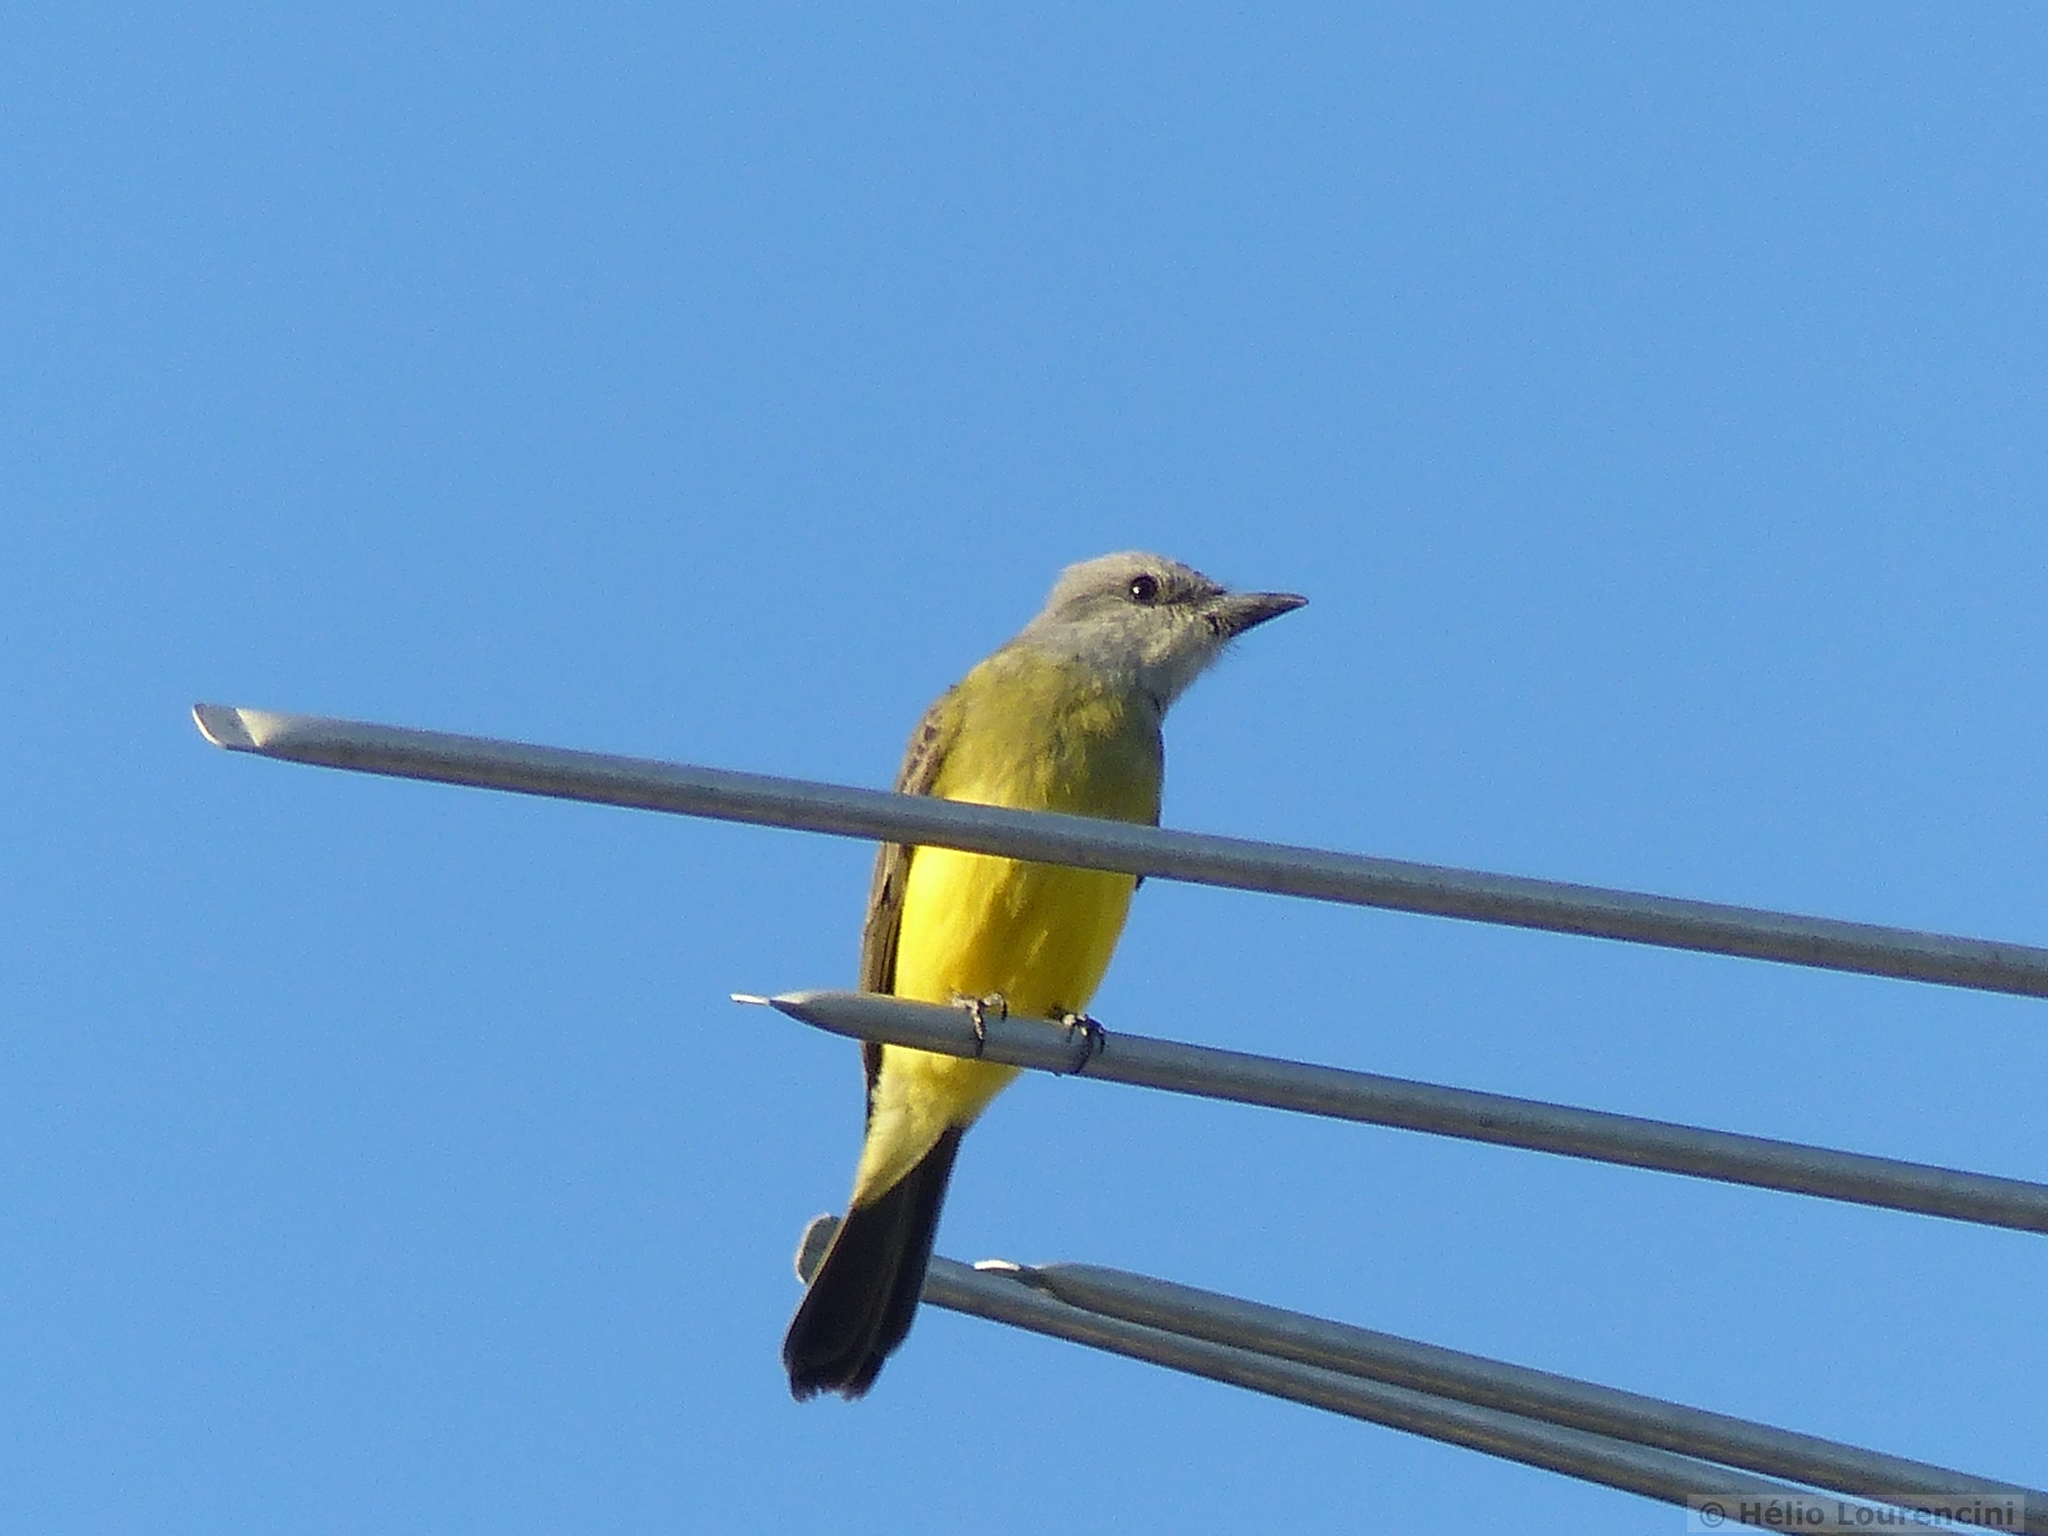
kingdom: Animalia
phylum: Chordata
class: Aves
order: Passeriformes
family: Tyrannidae
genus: Tyrannus
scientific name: Tyrannus melancholicus
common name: Tropical kingbird
